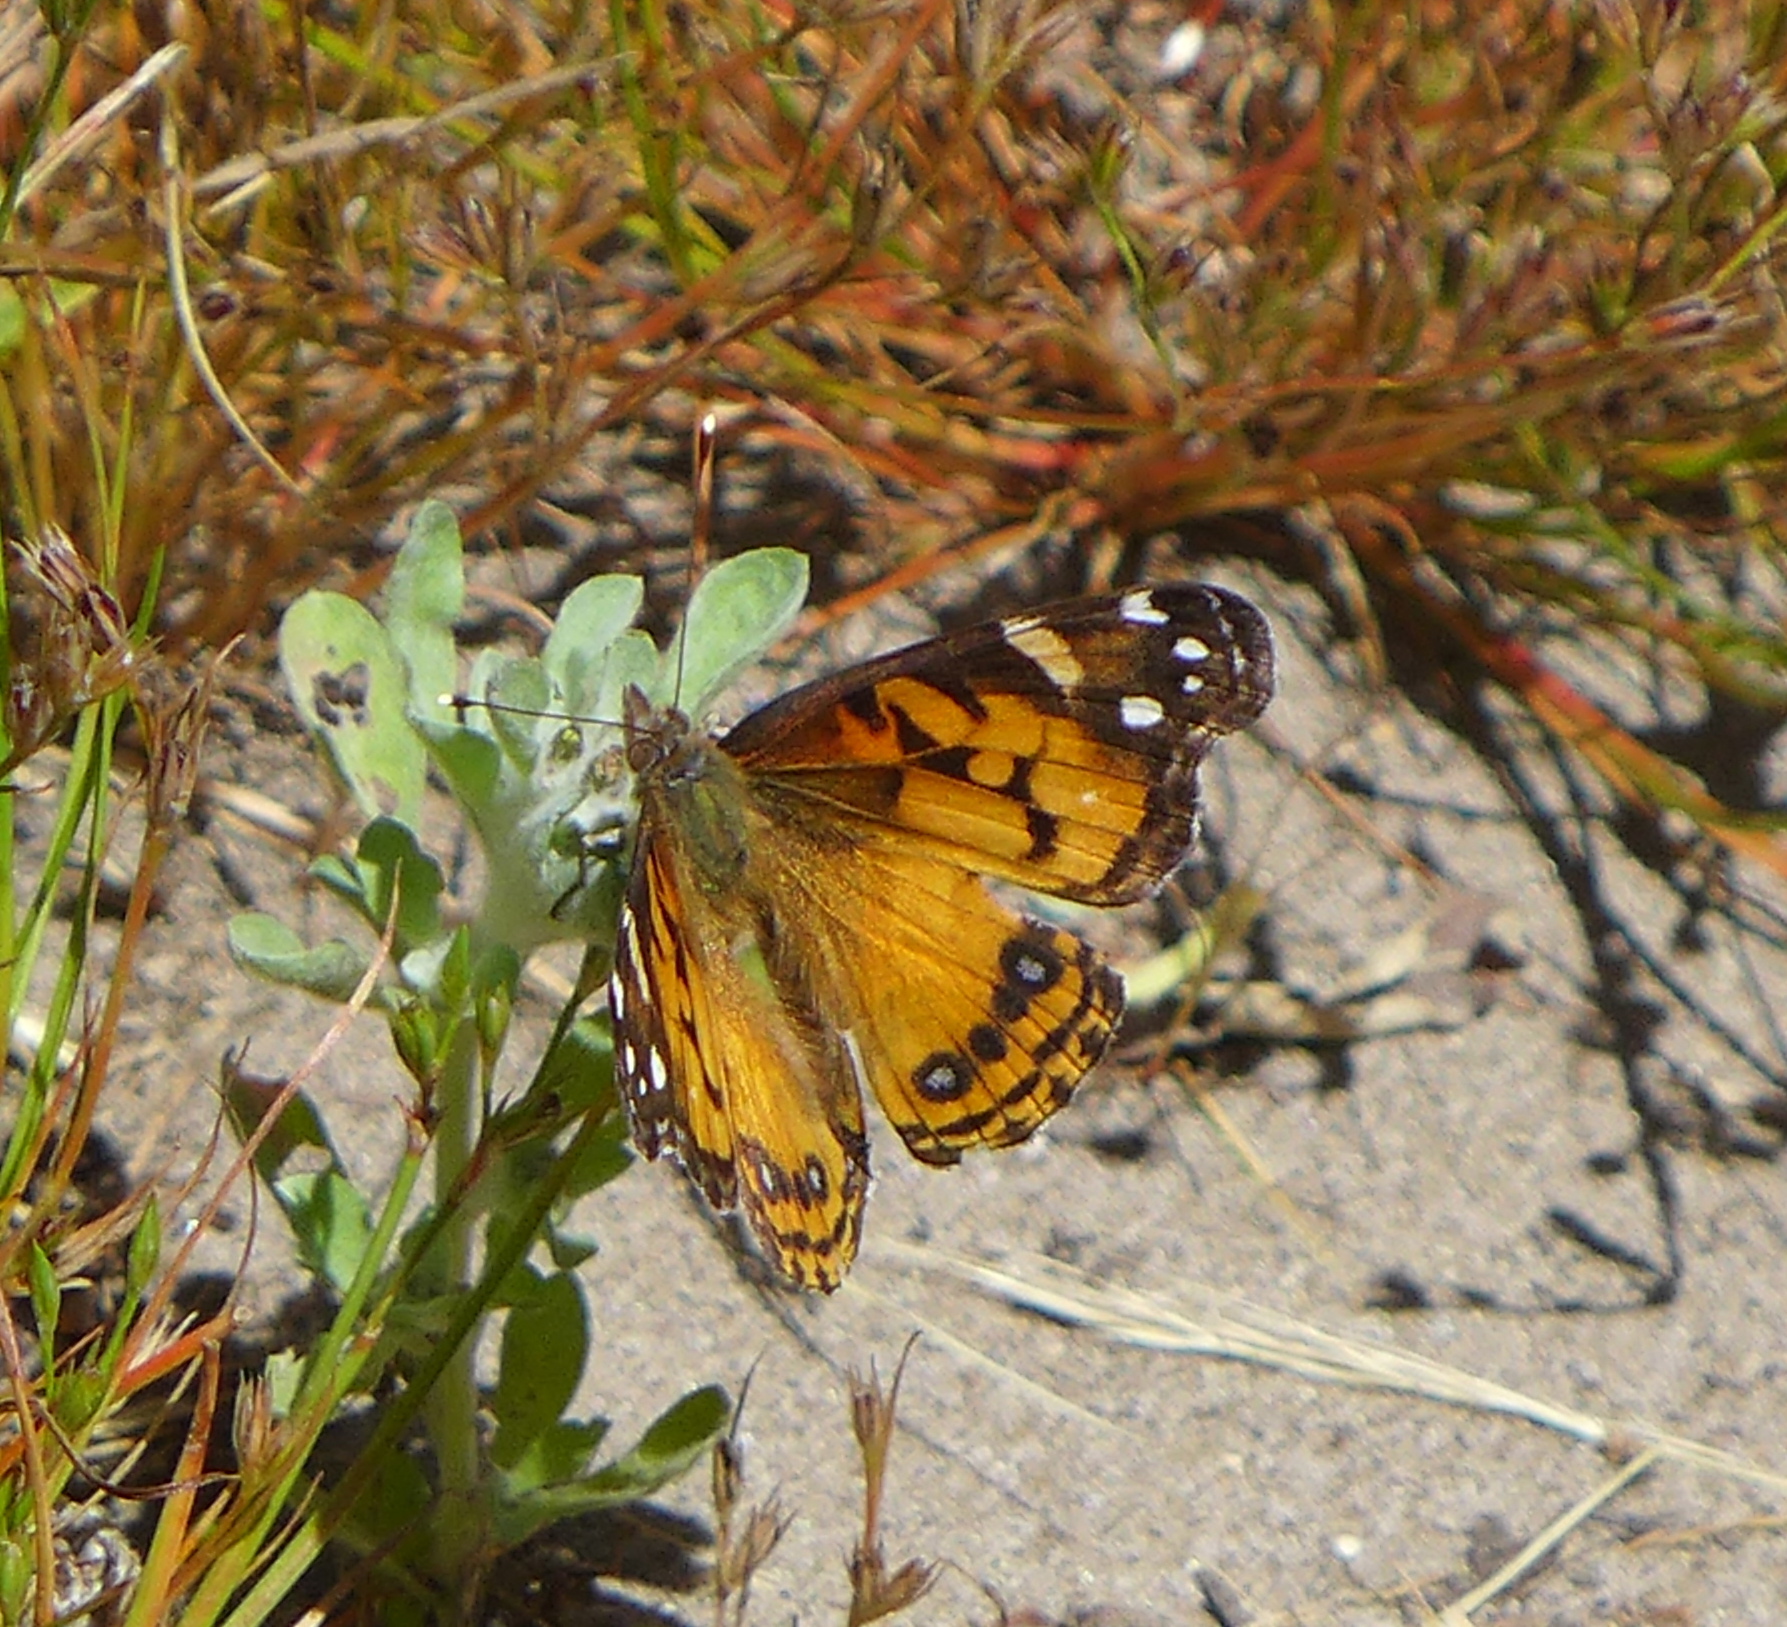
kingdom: Animalia
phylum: Arthropoda
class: Insecta
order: Lepidoptera
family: Nymphalidae
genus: Vanessa
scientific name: Vanessa virginiensis
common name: American lady
